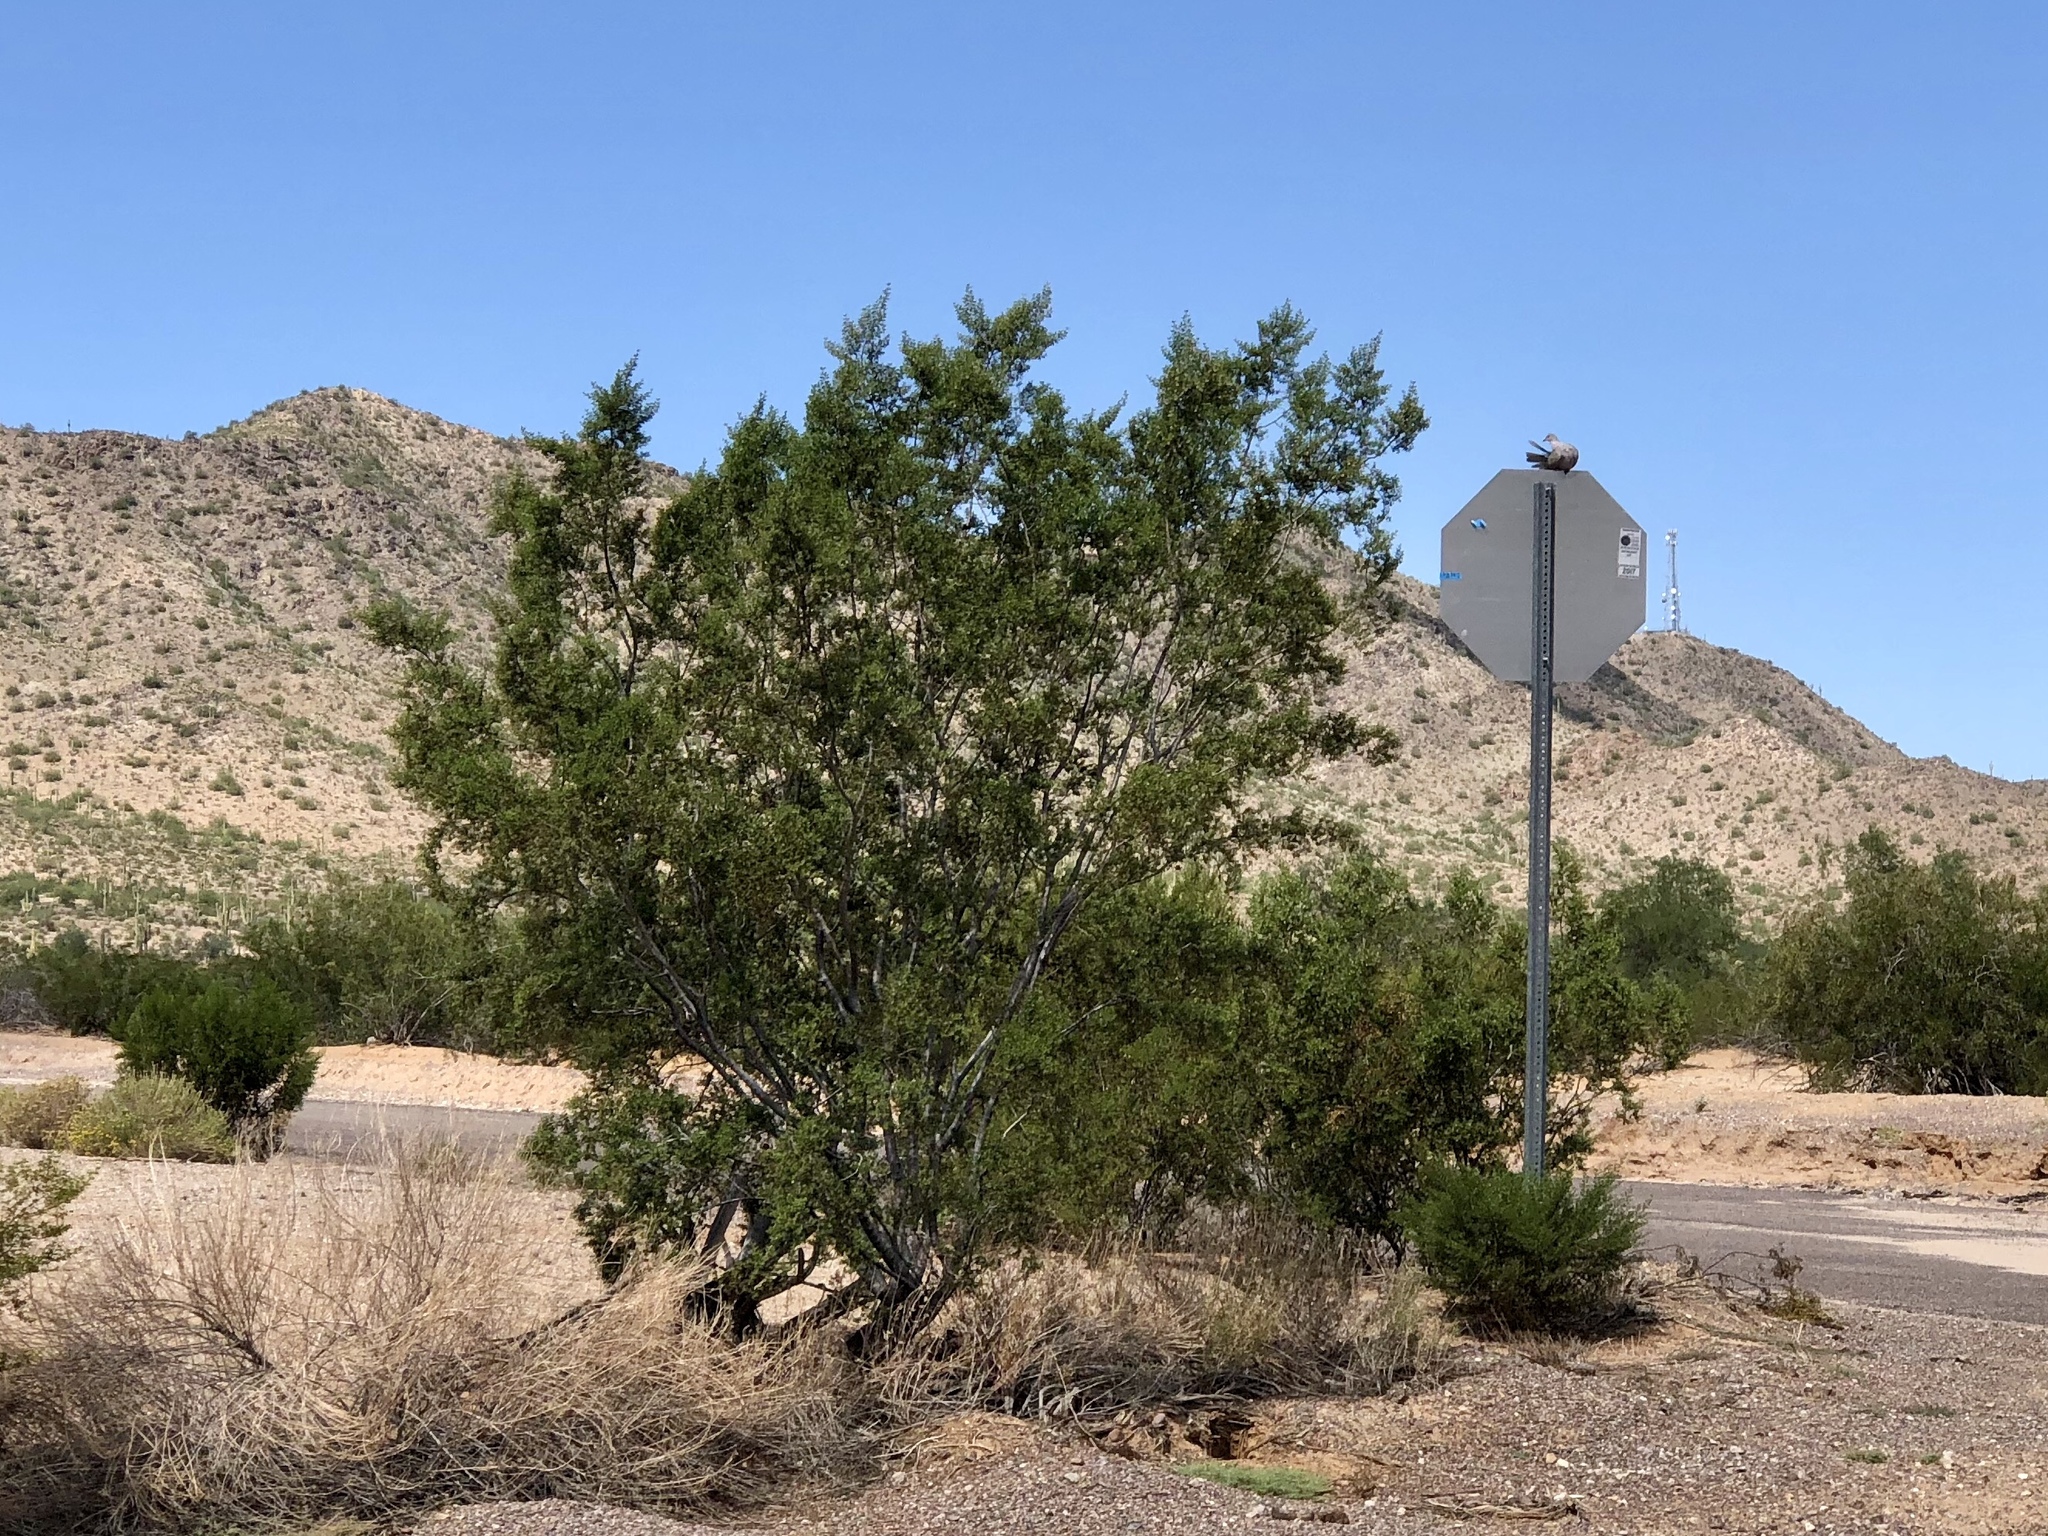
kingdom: Plantae
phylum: Tracheophyta
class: Magnoliopsida
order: Zygophyllales
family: Zygophyllaceae
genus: Larrea
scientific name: Larrea tridentata
